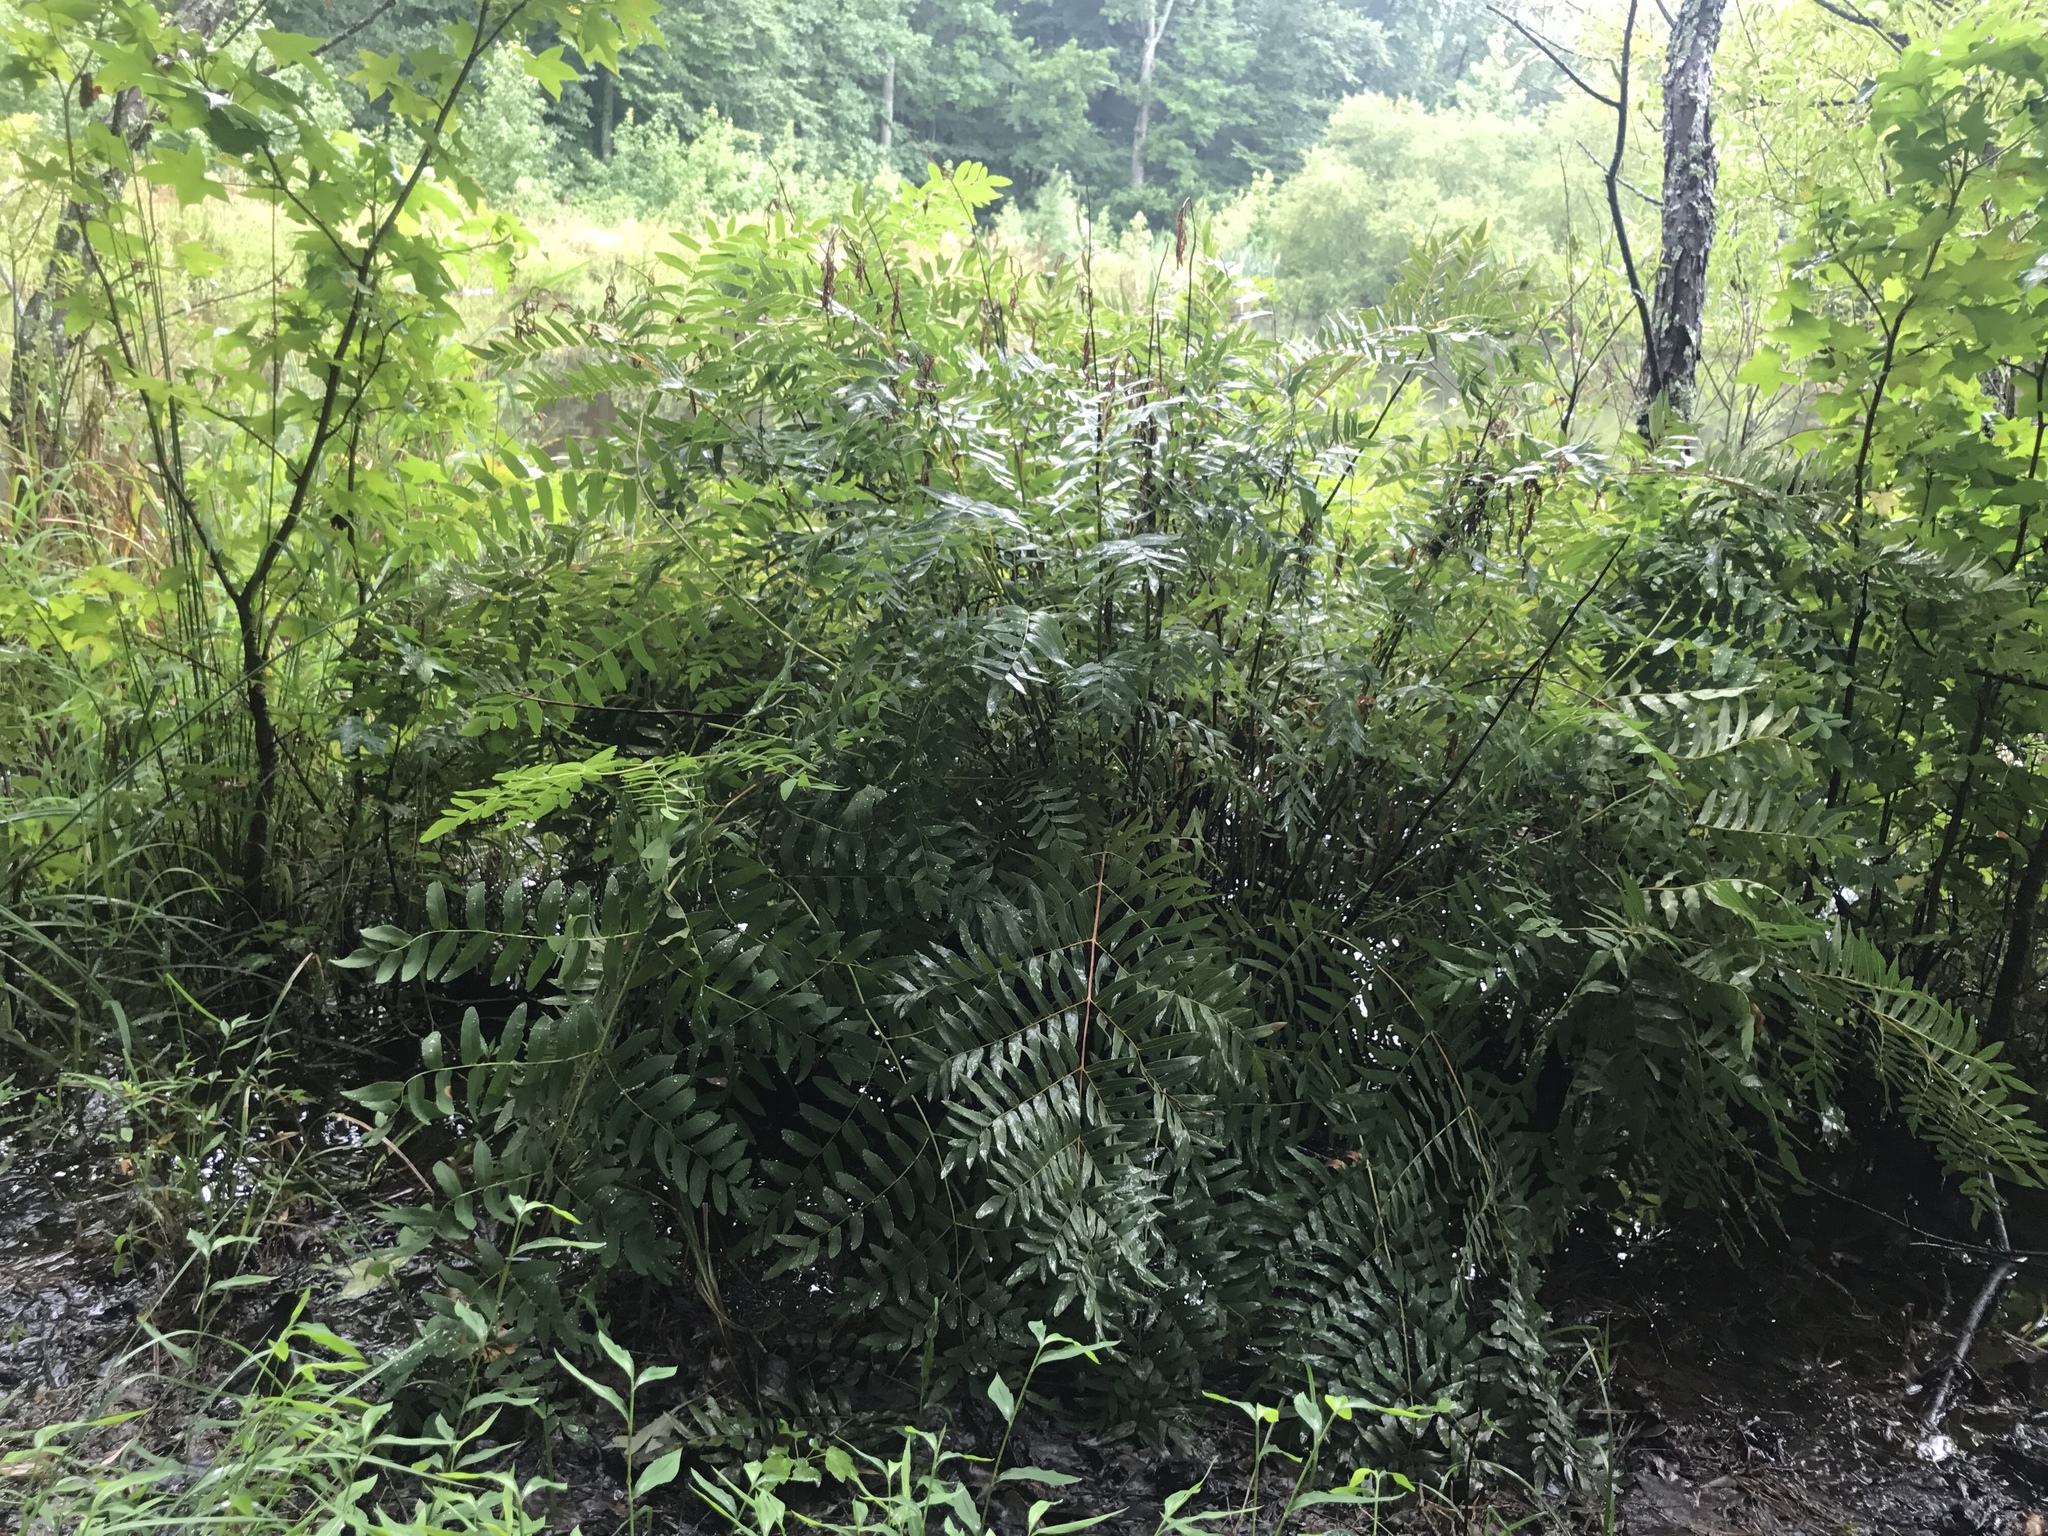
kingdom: Plantae
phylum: Tracheophyta
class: Polypodiopsida
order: Osmundales
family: Osmundaceae
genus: Osmunda
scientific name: Osmunda spectabilis
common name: American royal fern
